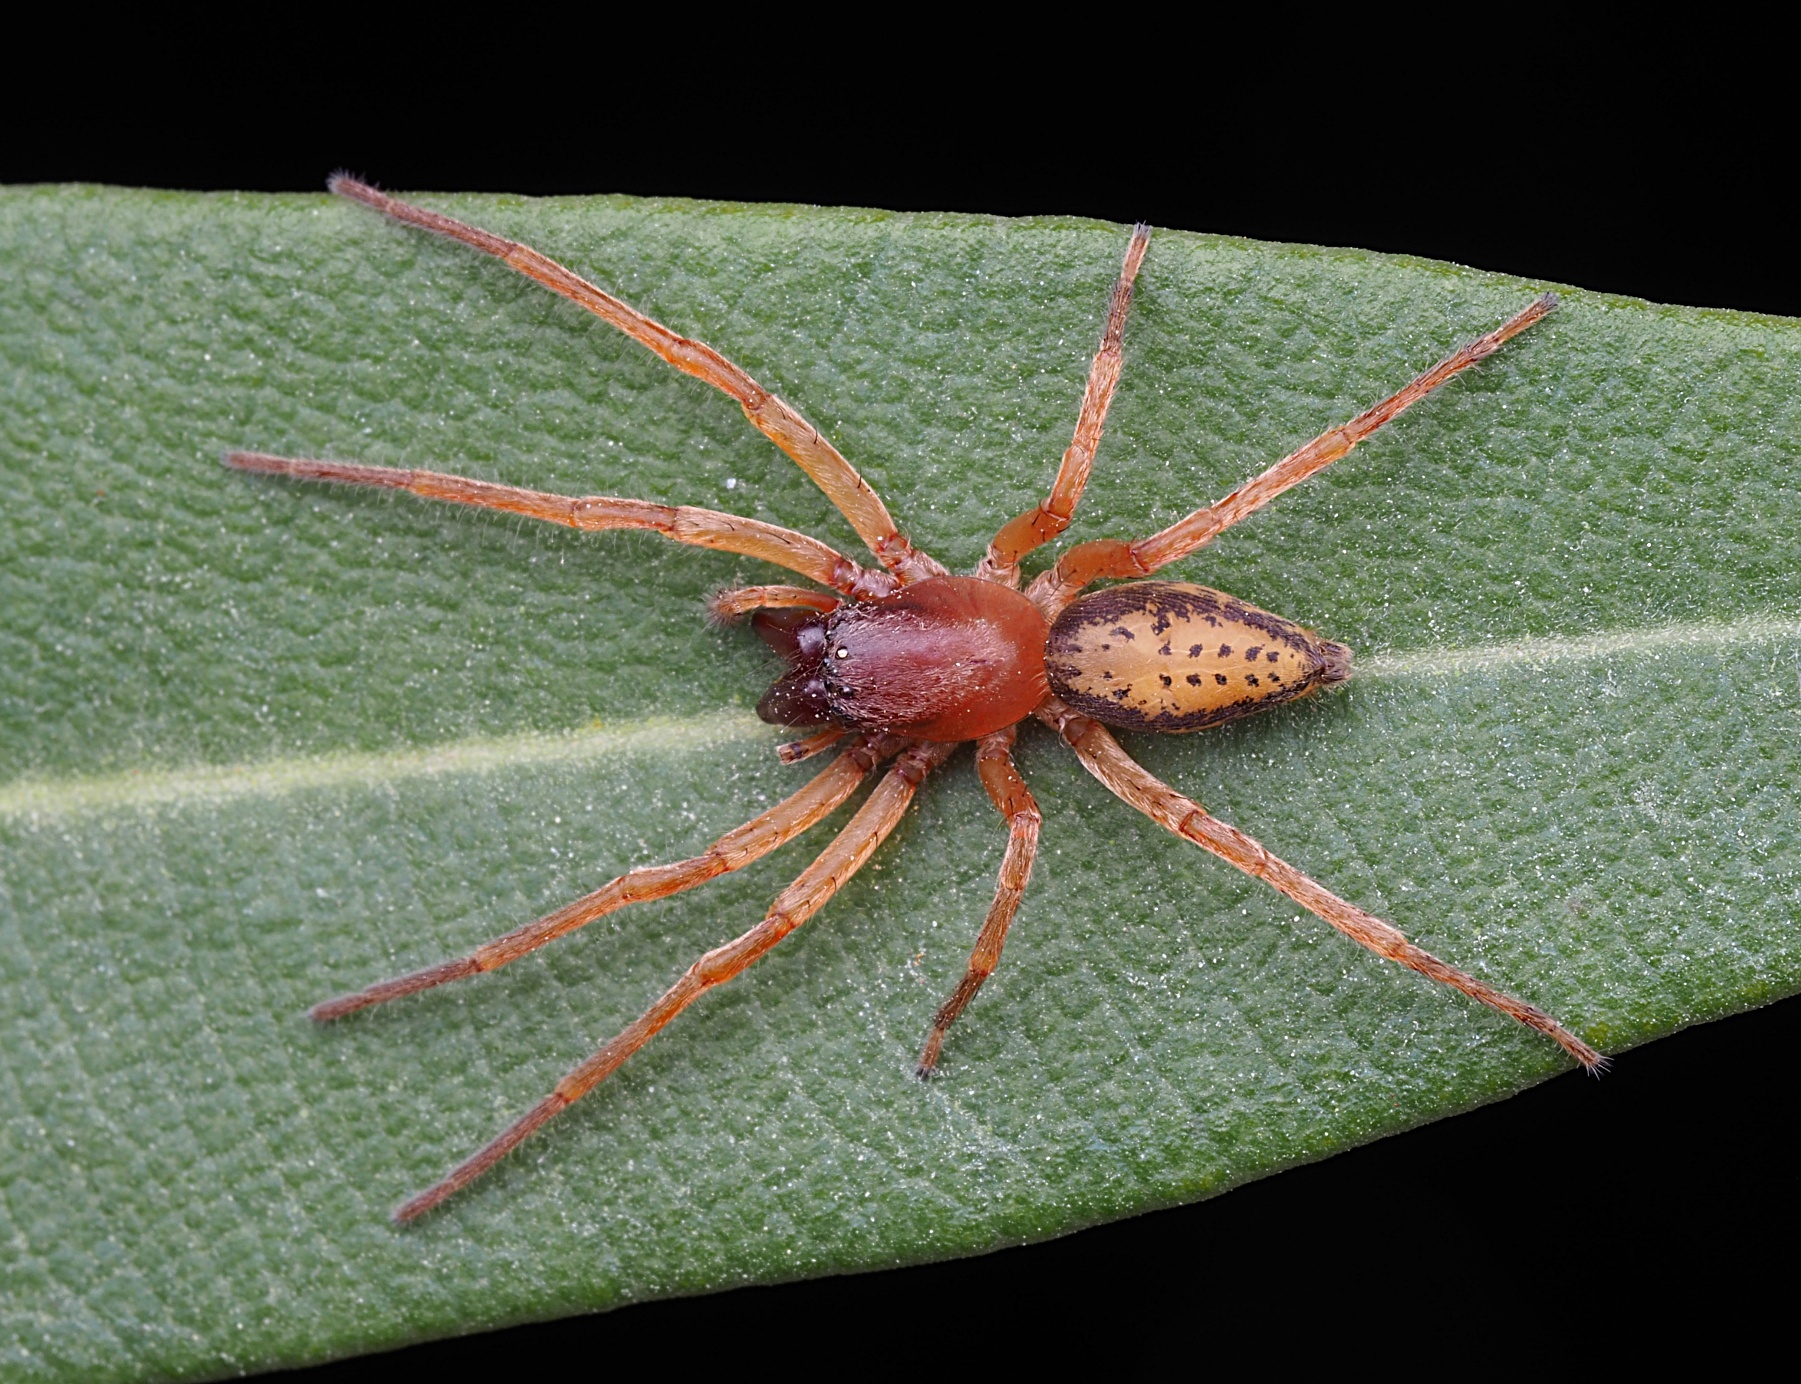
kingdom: Animalia
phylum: Arthropoda
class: Arachnida
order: Araneae
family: Clubionidae
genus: Clubiona
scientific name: Clubiona peculiaris
